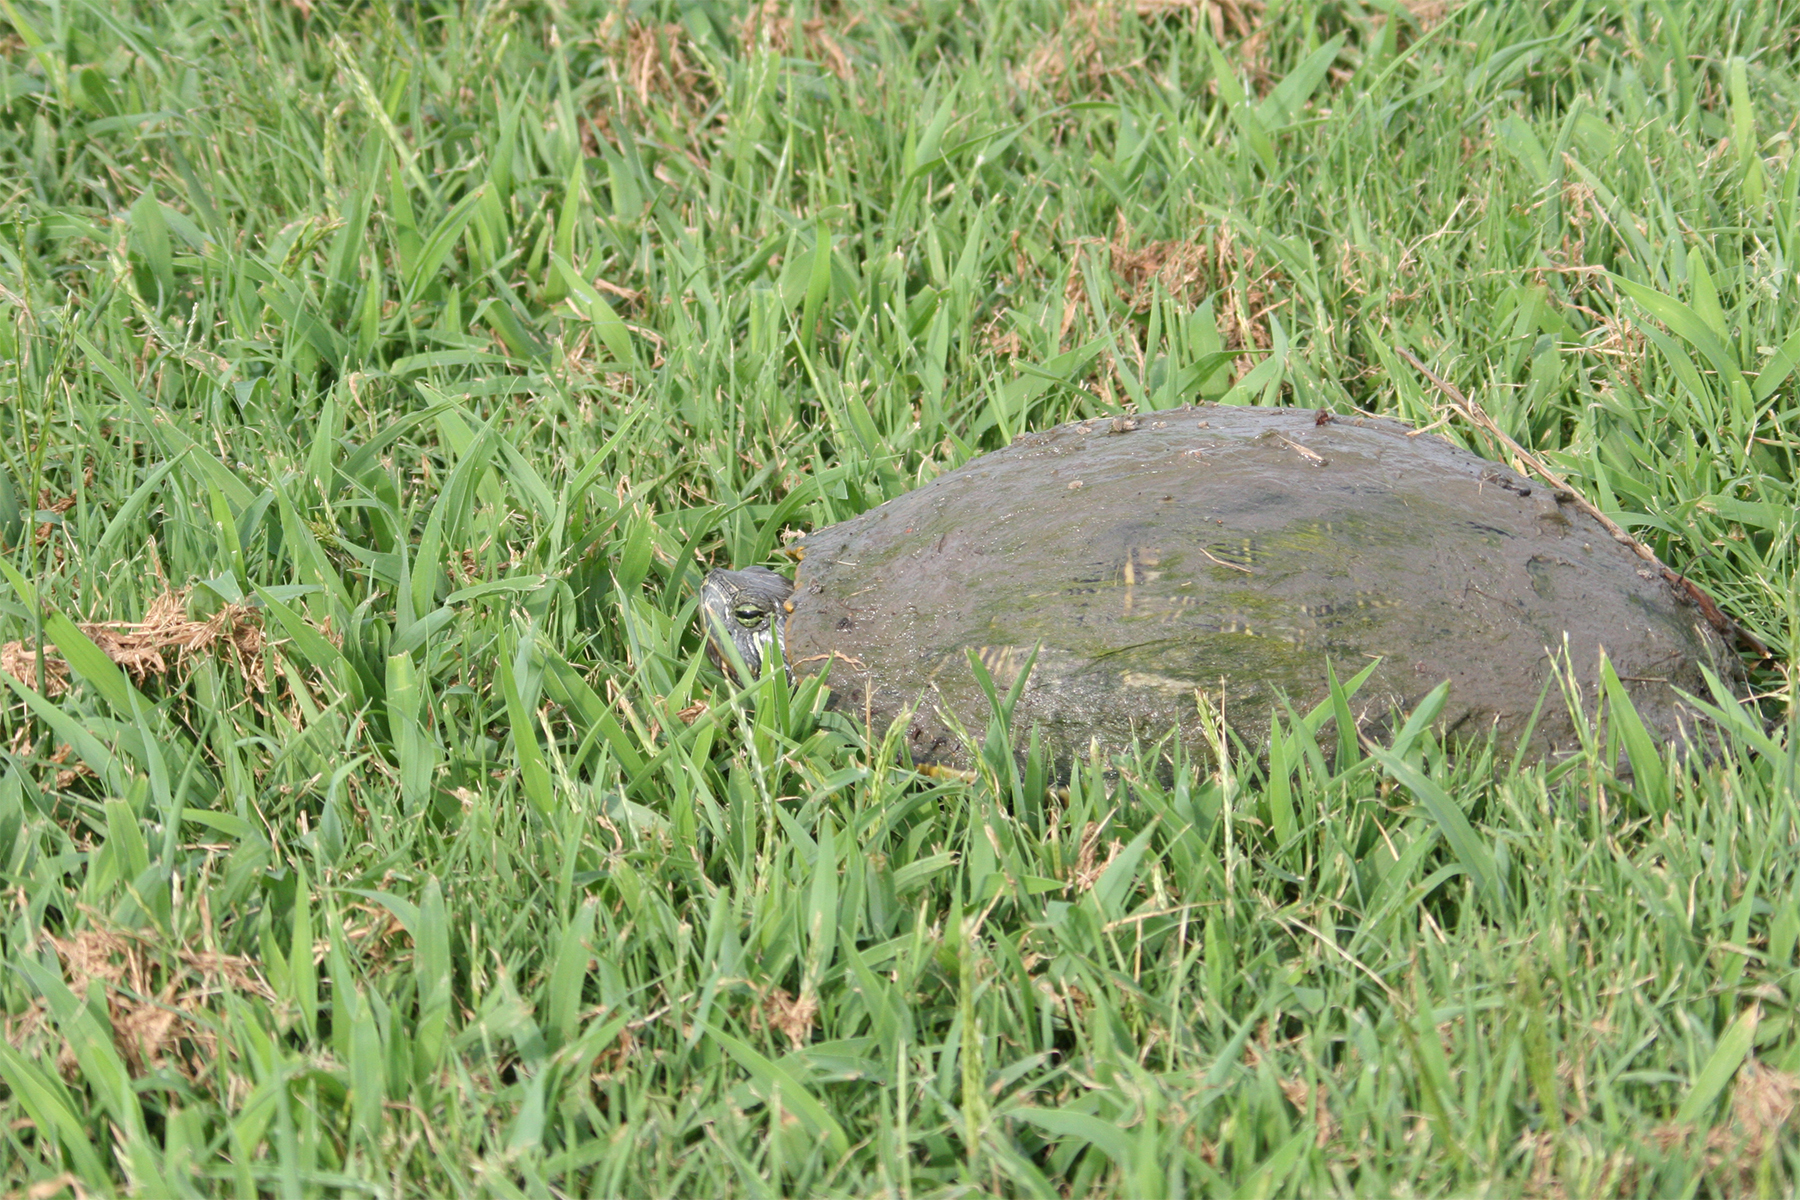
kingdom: Animalia
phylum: Chordata
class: Testudines
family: Emydidae
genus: Trachemys
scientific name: Trachemys scripta
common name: Slider
